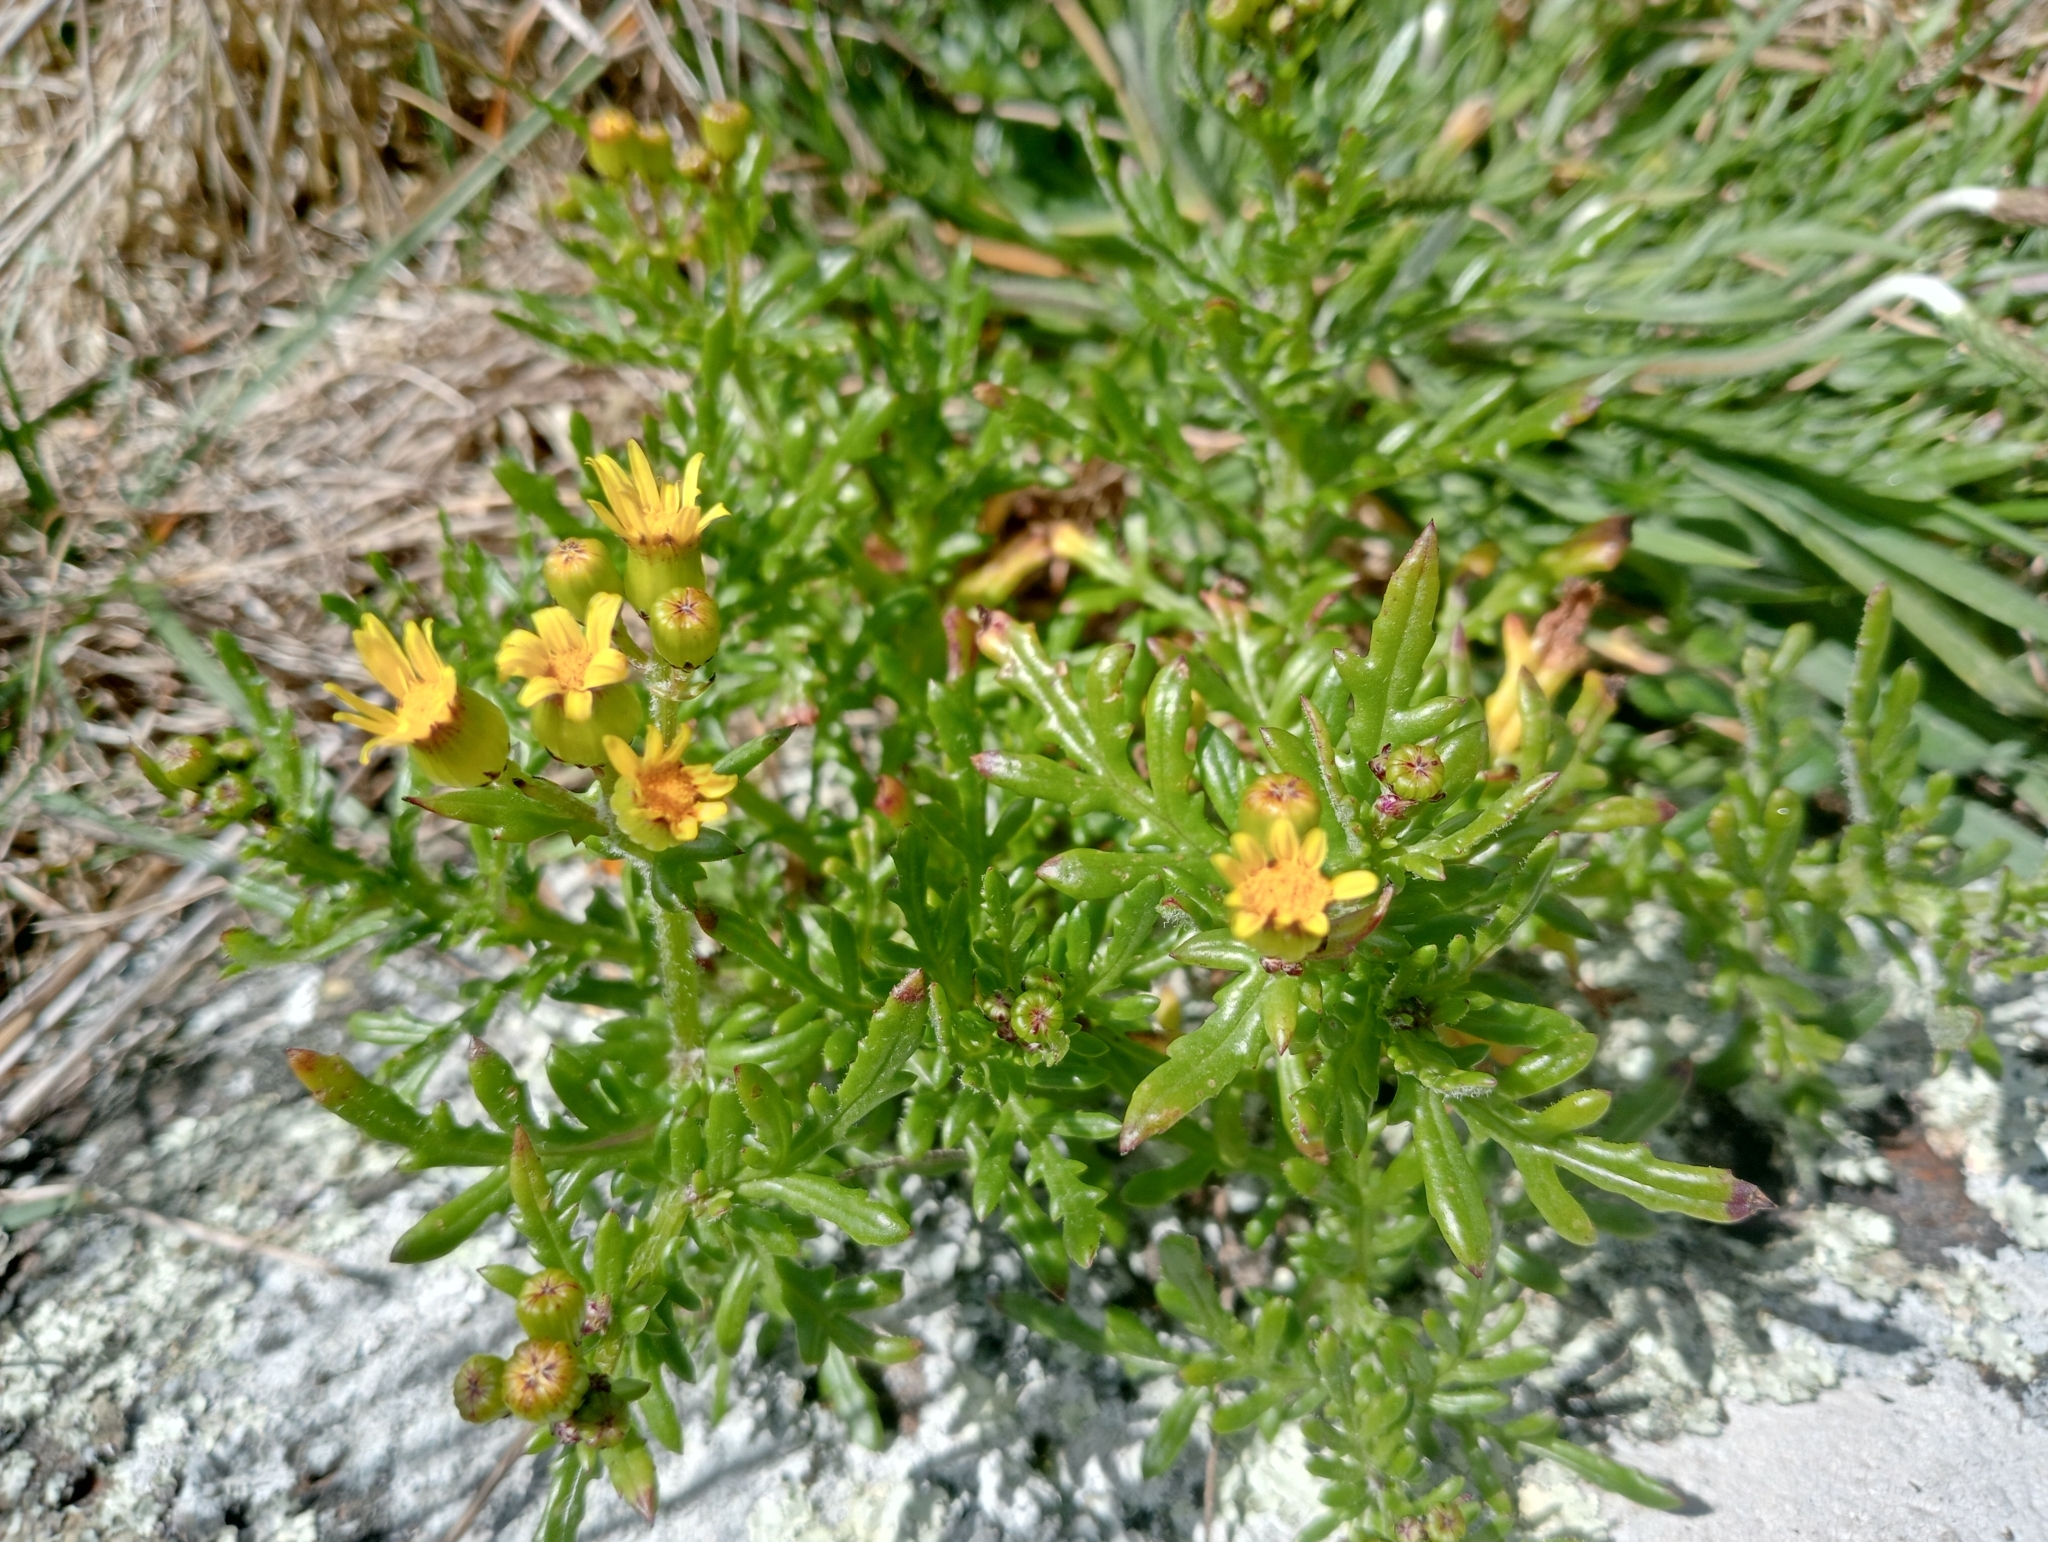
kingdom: Plantae
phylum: Tracheophyta
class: Magnoliopsida
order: Asterales
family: Asteraceae
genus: Senecio
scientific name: Senecio lautus
